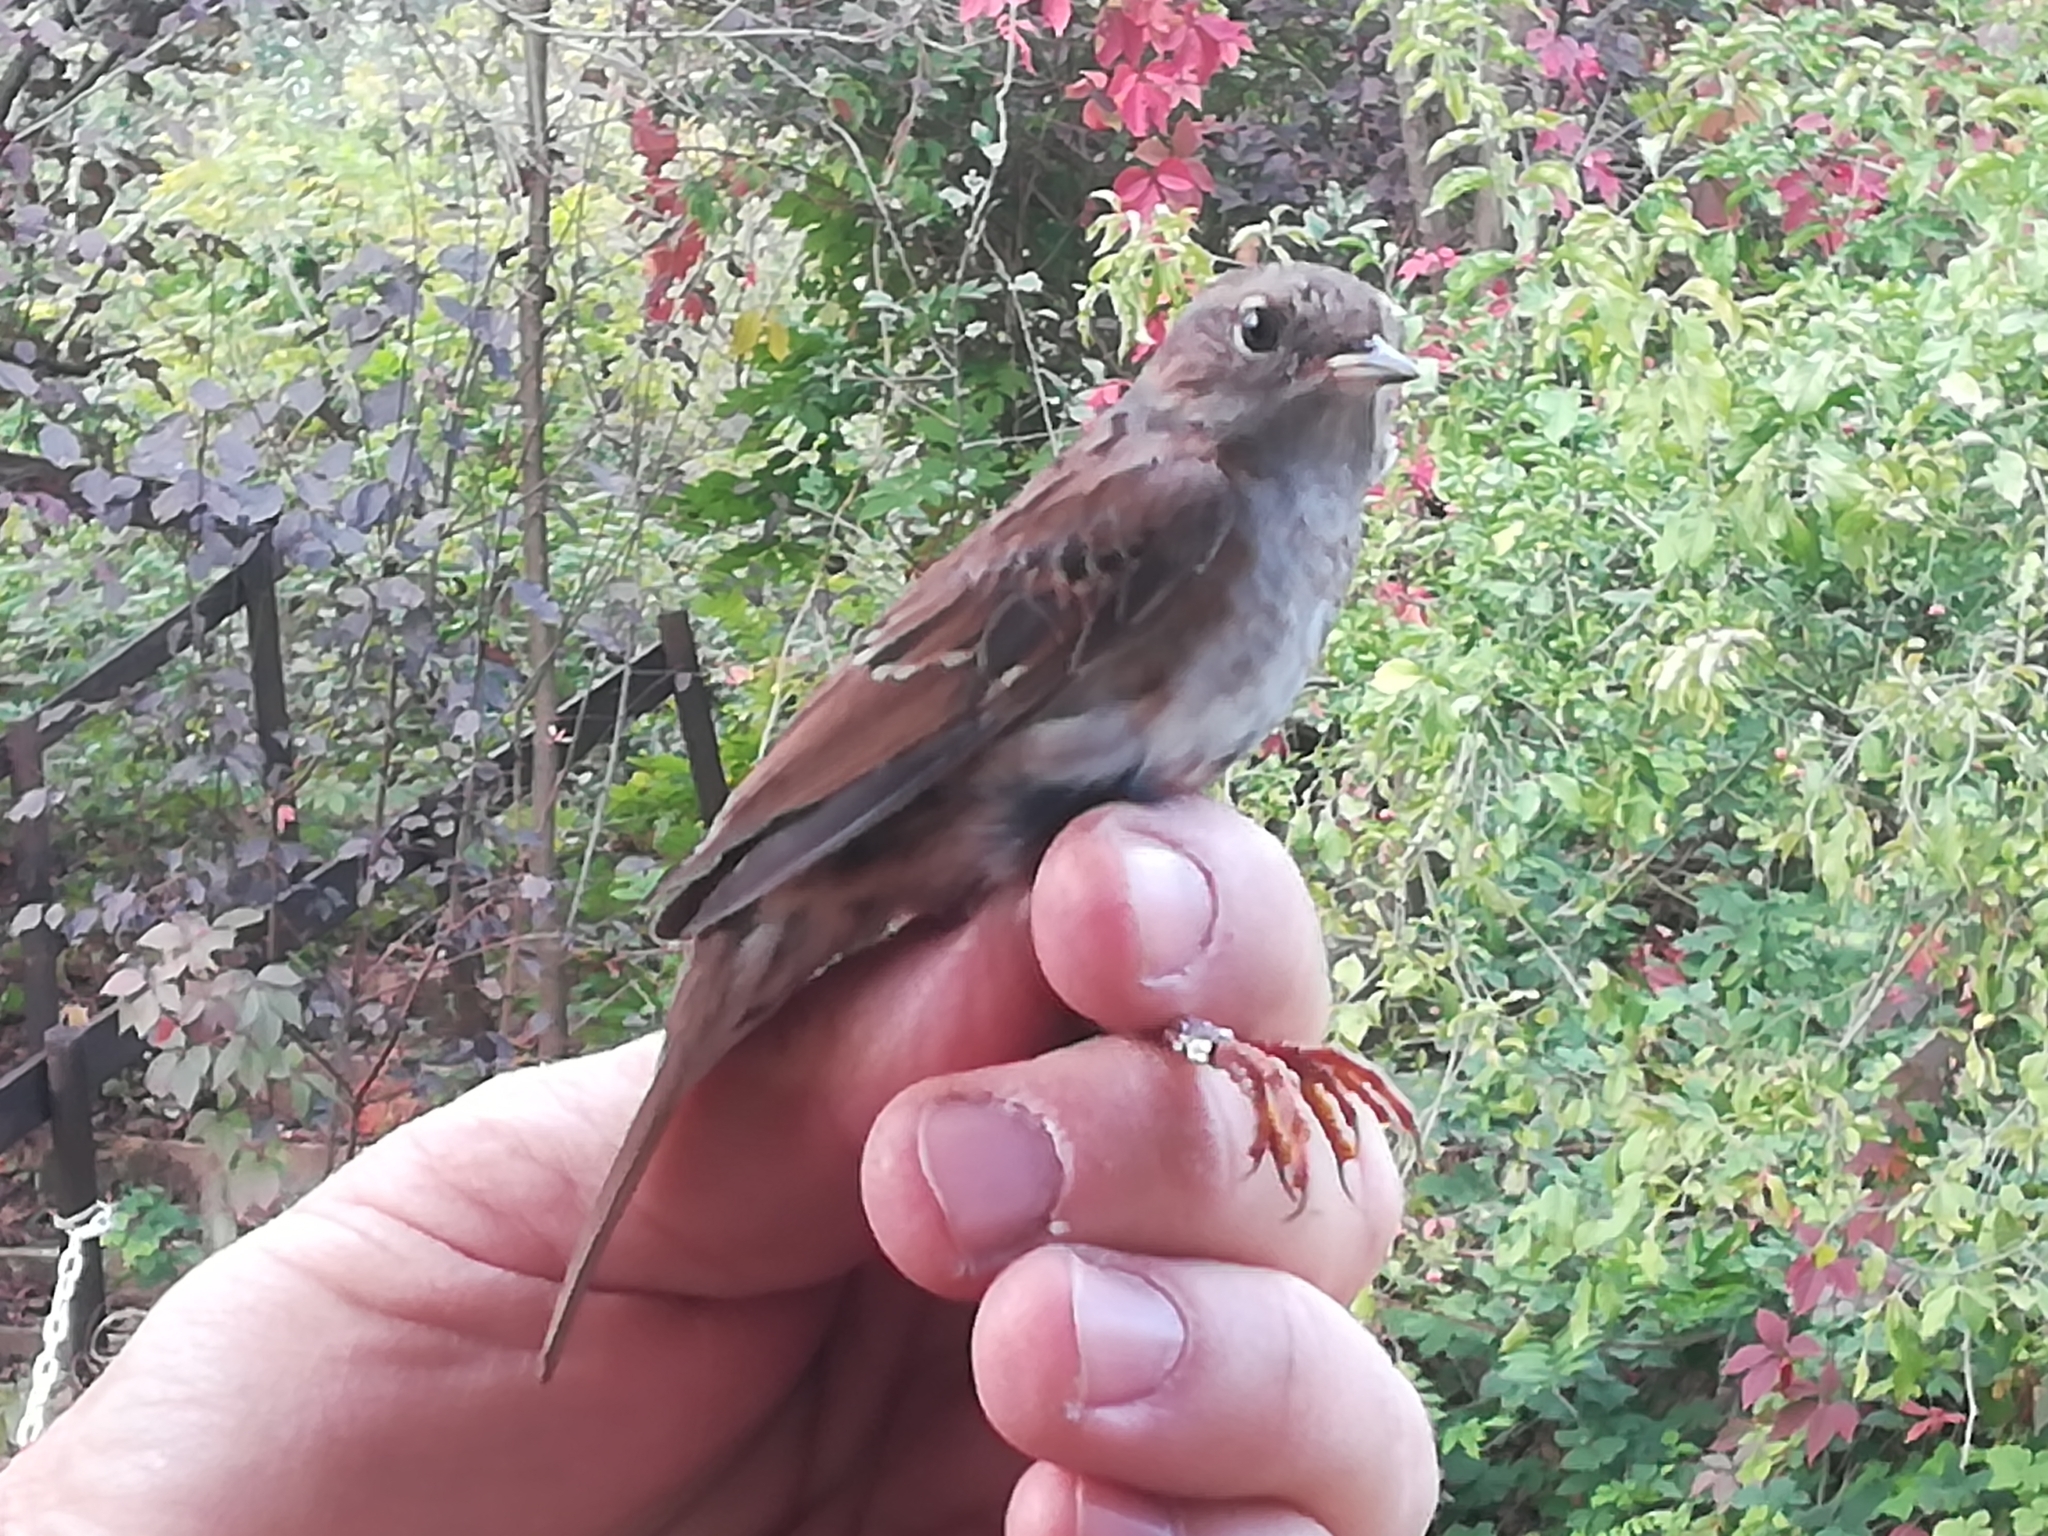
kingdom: Animalia
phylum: Chordata
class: Aves
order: Passeriformes
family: Prunellidae
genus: Prunella
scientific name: Prunella modularis
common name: Dunnock
